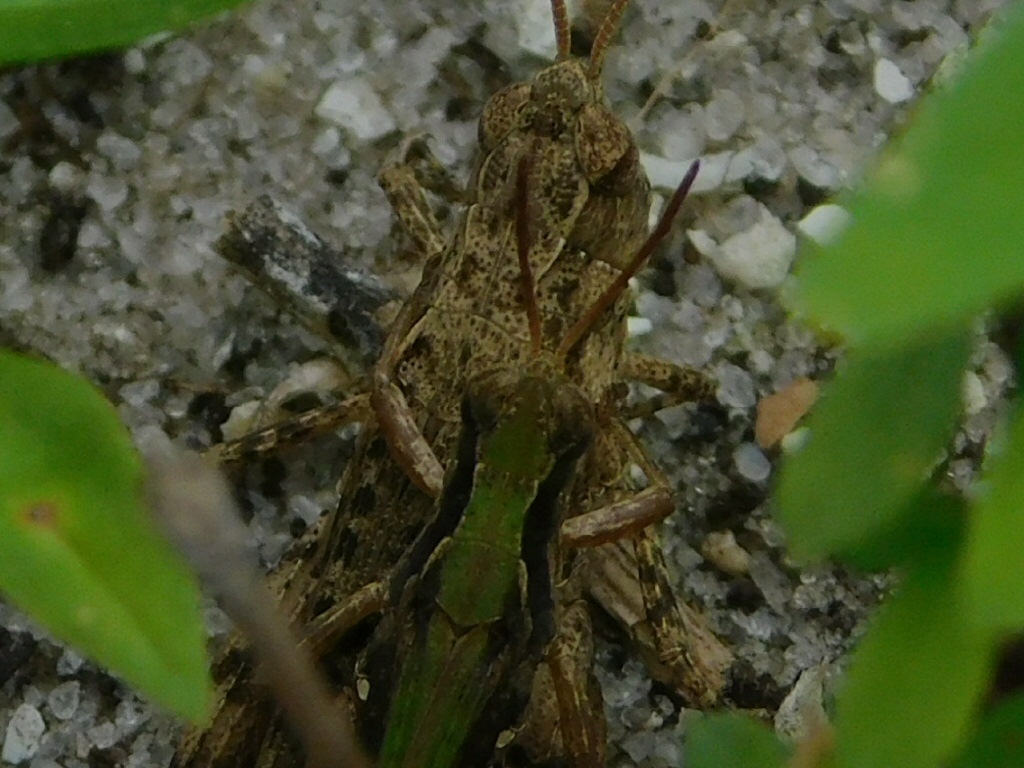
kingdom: Animalia
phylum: Arthropoda
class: Insecta
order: Orthoptera
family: Acrididae
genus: Orphulella
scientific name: Orphulella punctata
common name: Slant-faced grasshopper
